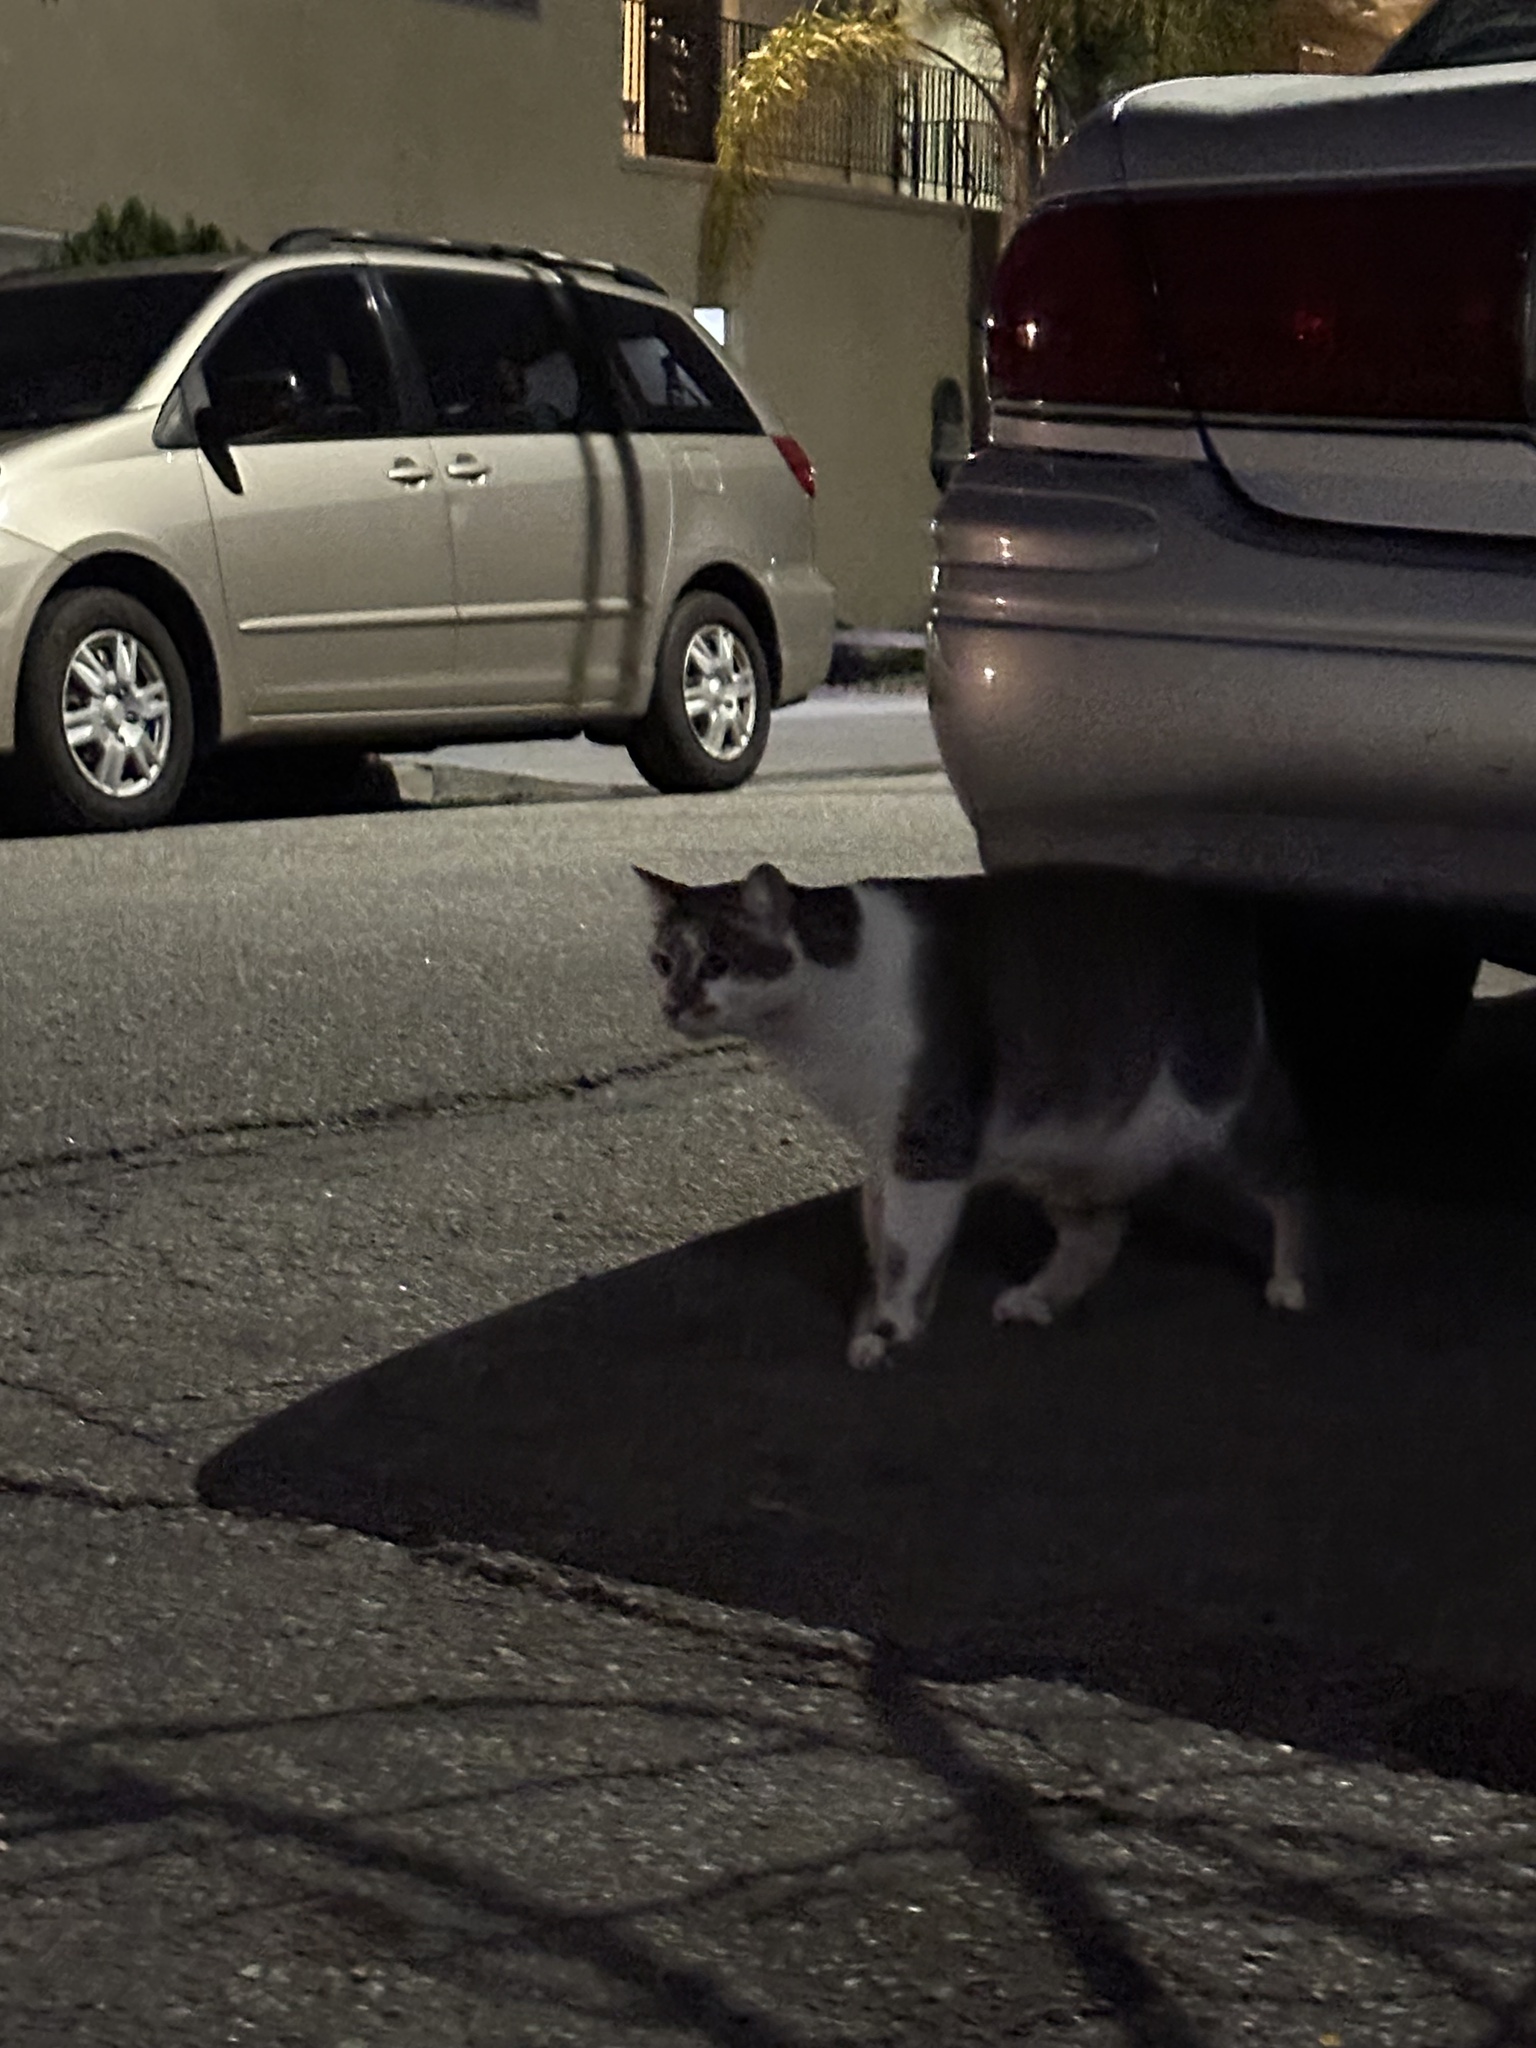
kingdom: Animalia
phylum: Chordata
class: Mammalia
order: Carnivora
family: Felidae
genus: Felis
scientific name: Felis catus
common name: Domestic cat
